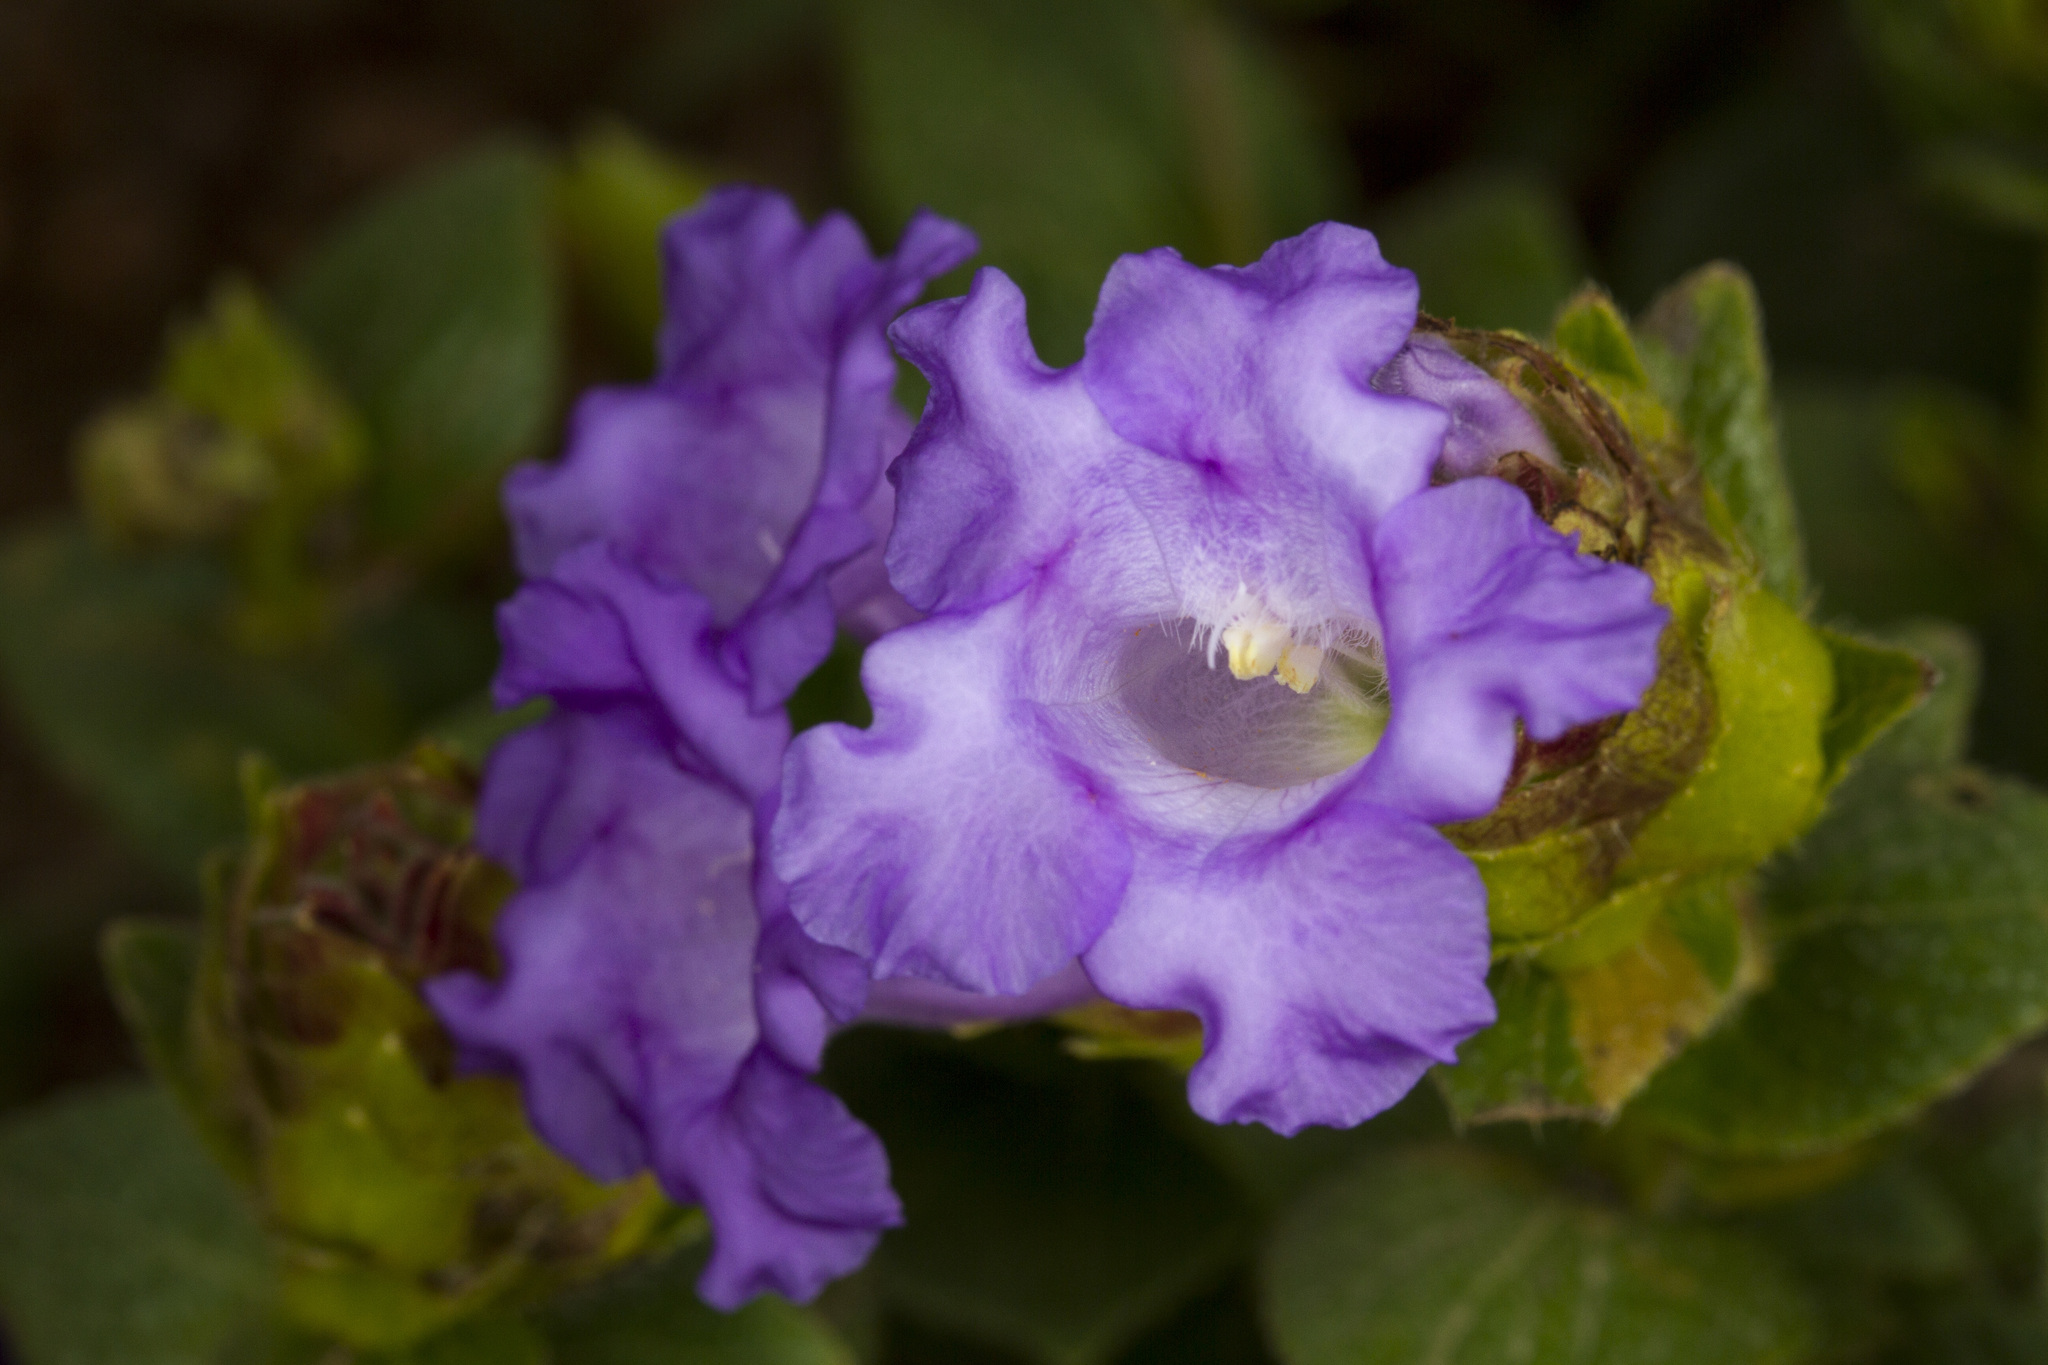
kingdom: Plantae
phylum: Tracheophyta
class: Magnoliopsida
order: Lamiales
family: Acanthaceae
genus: Strobilanthes
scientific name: Strobilanthes sessilis
